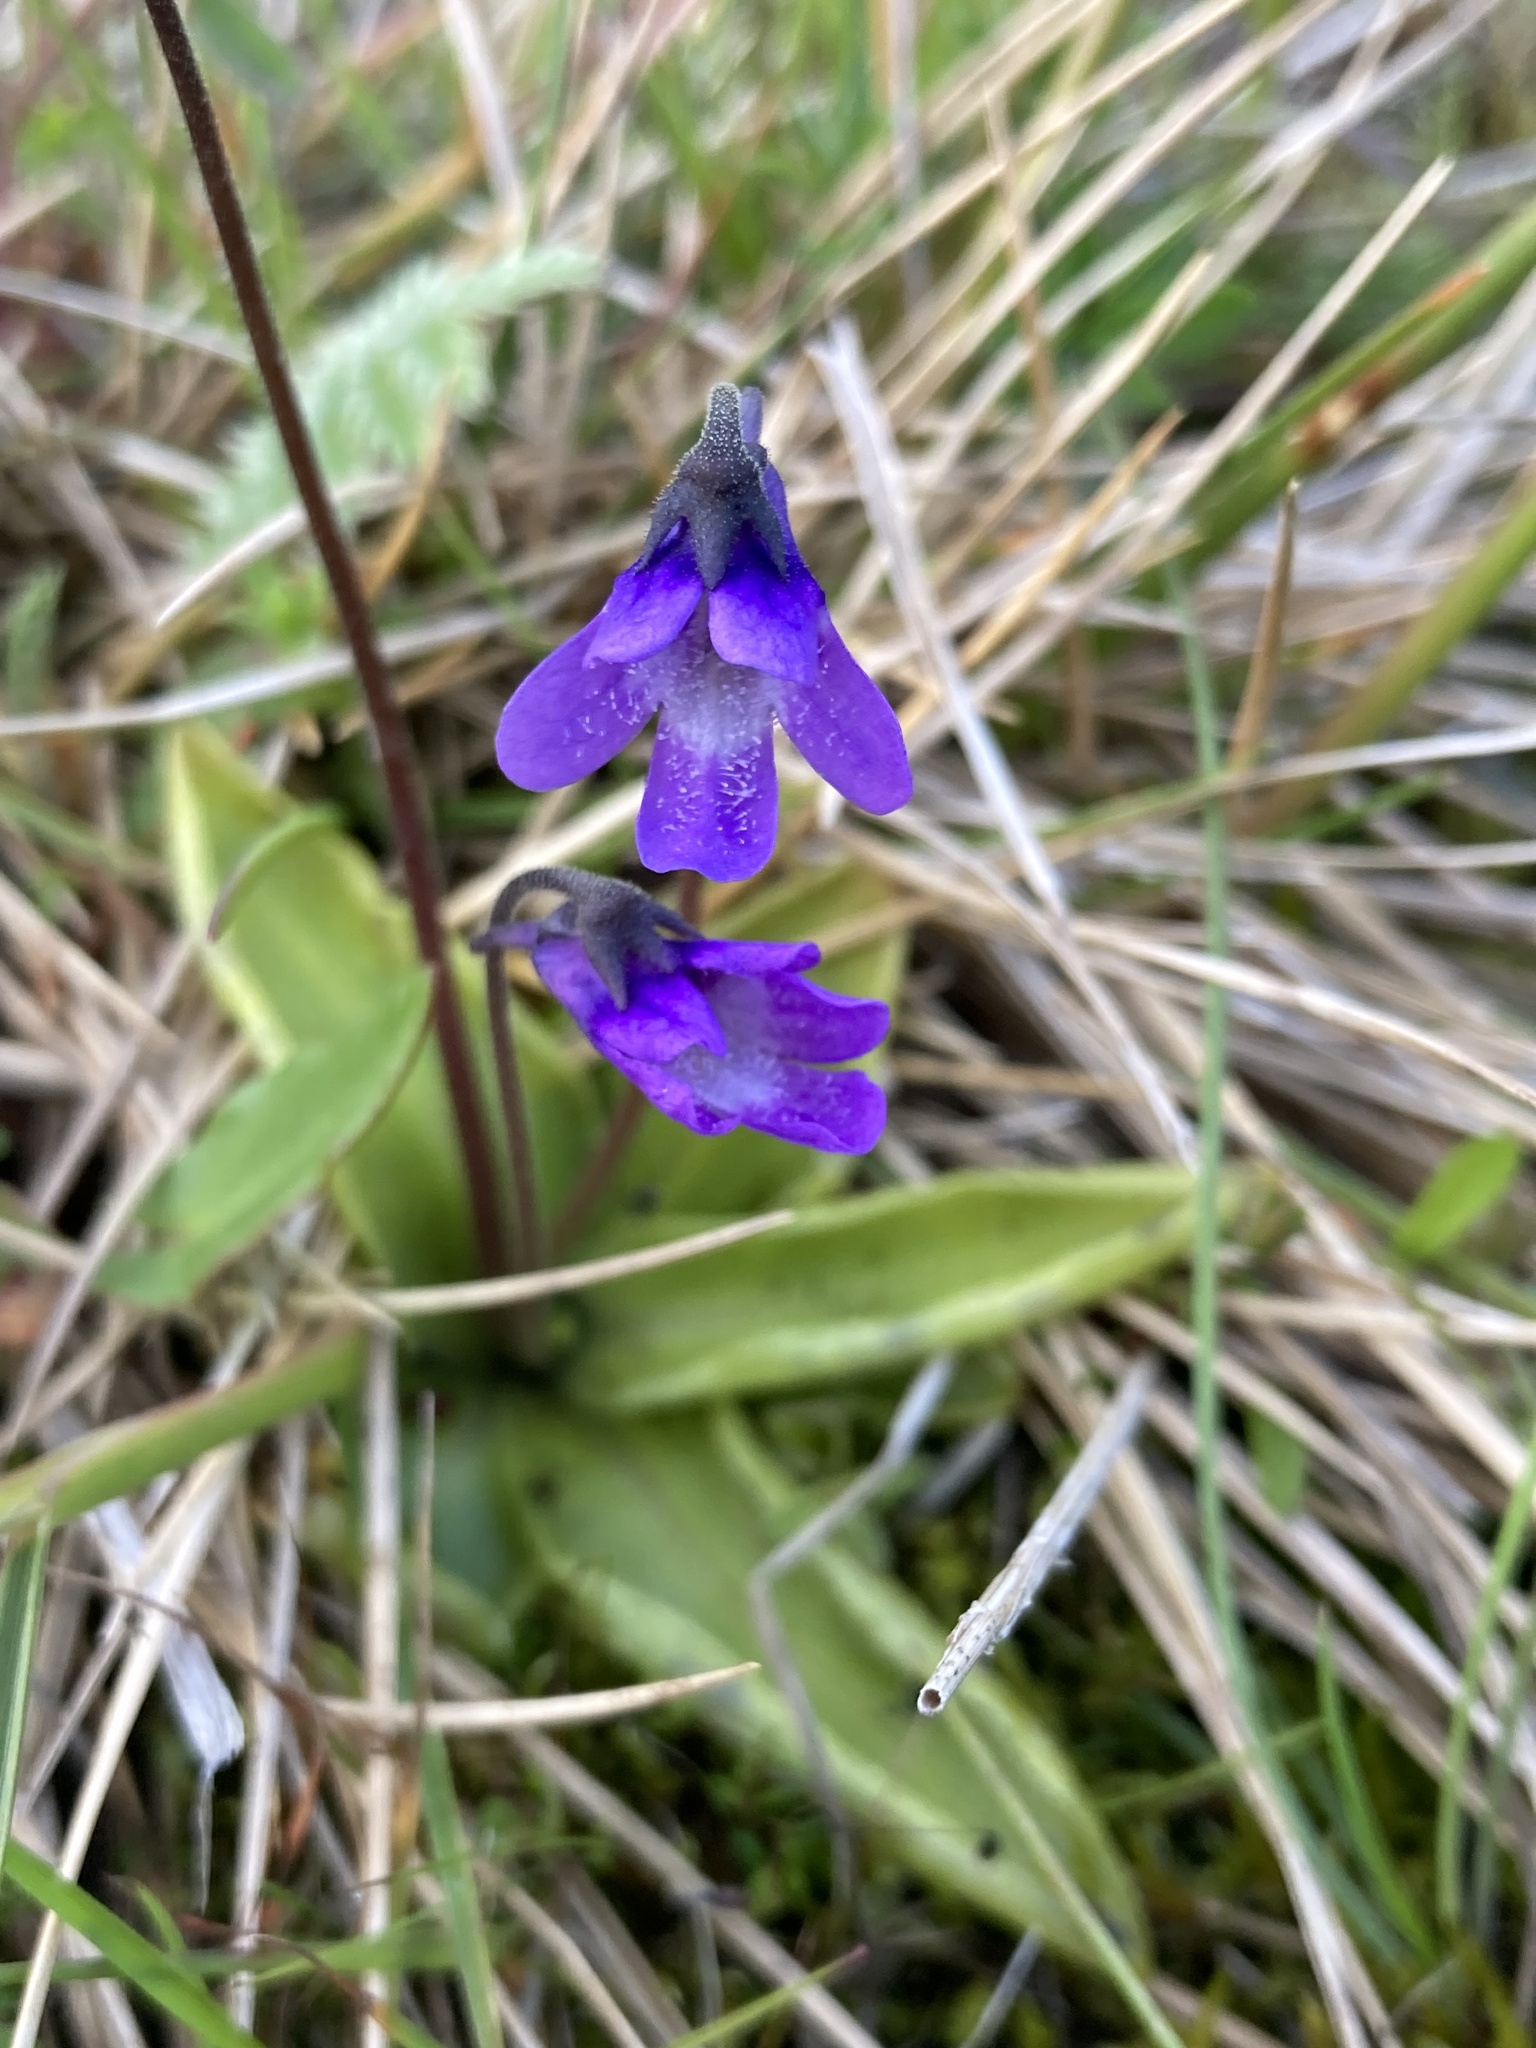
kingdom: Plantae
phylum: Tracheophyta
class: Magnoliopsida
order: Lamiales
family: Lentibulariaceae
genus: Pinguicula
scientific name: Pinguicula vulgaris
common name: Common butterwort
